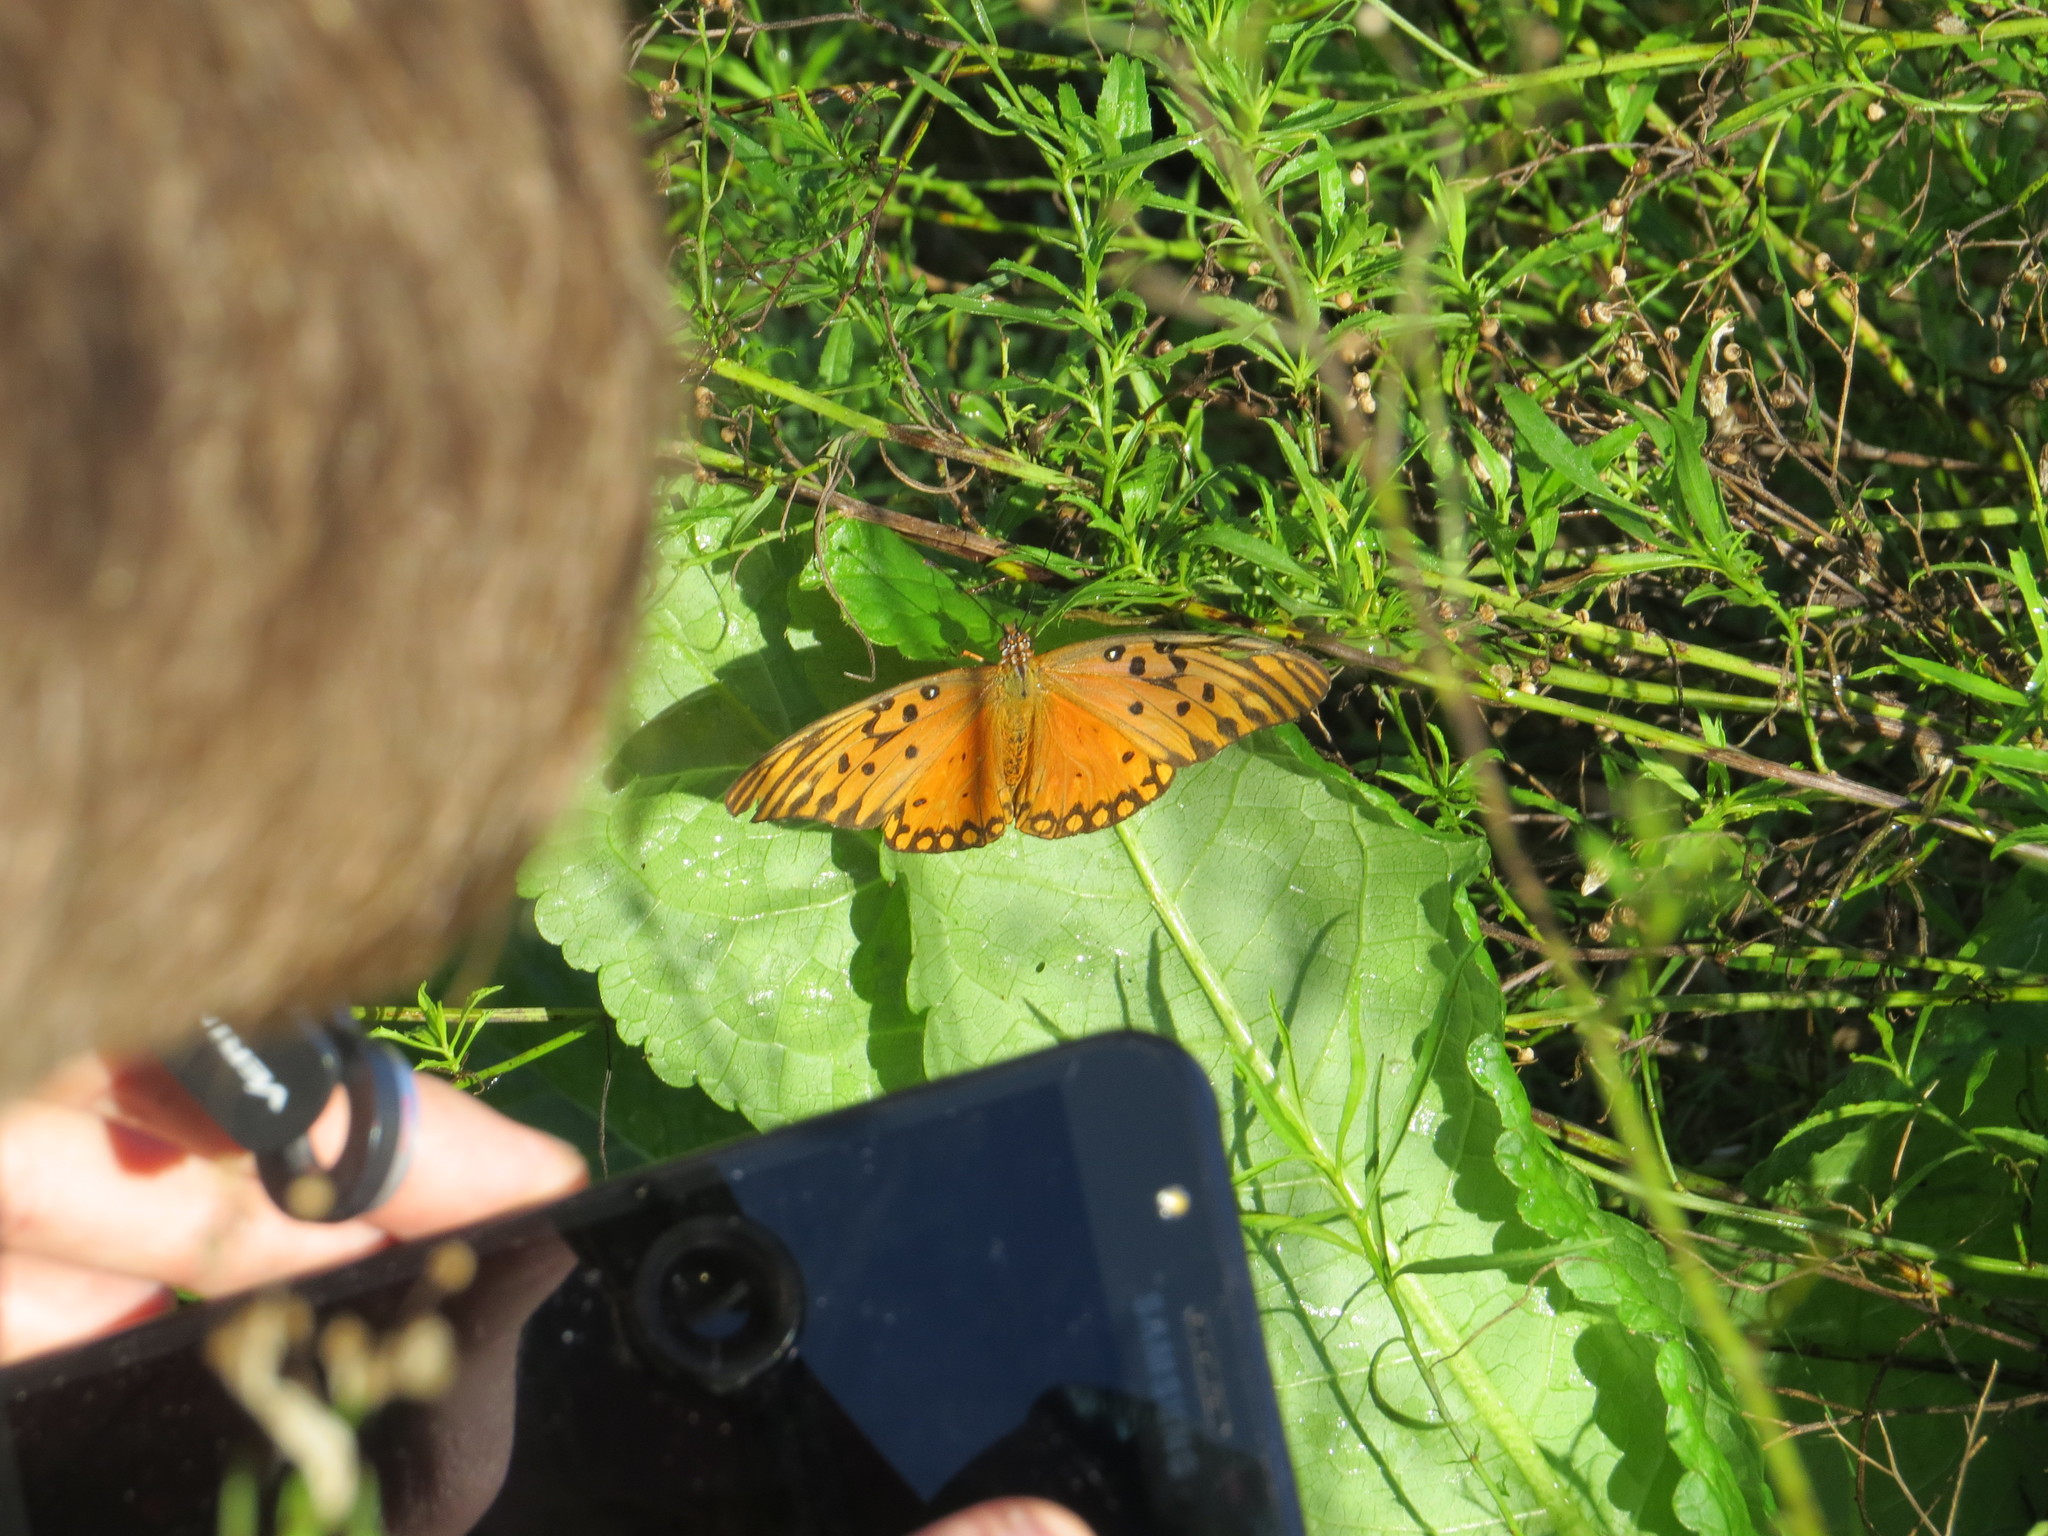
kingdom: Animalia
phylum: Arthropoda
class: Insecta
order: Lepidoptera
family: Nymphalidae
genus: Dione
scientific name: Dione vanillae
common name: Gulf fritillary
